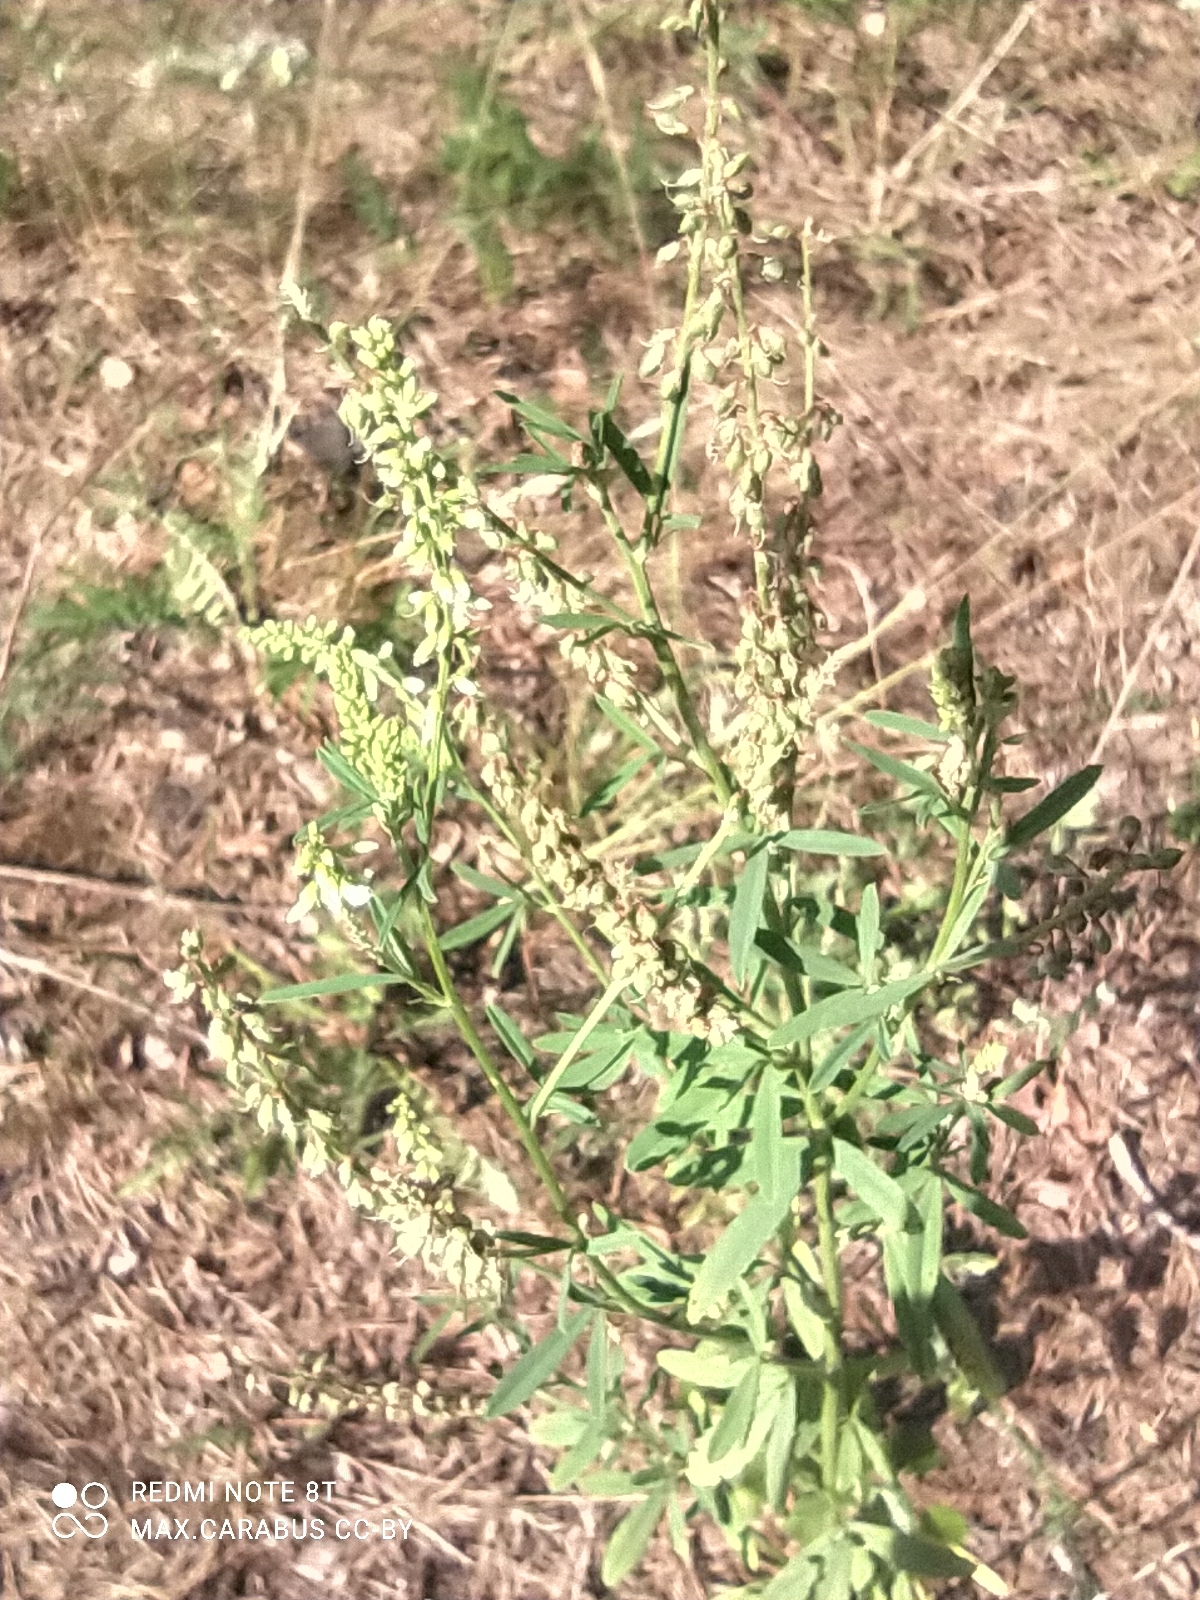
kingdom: Plantae
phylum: Tracheophyta
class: Magnoliopsida
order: Fabales
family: Fabaceae
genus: Melilotus
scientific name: Melilotus albus
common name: White melilot
